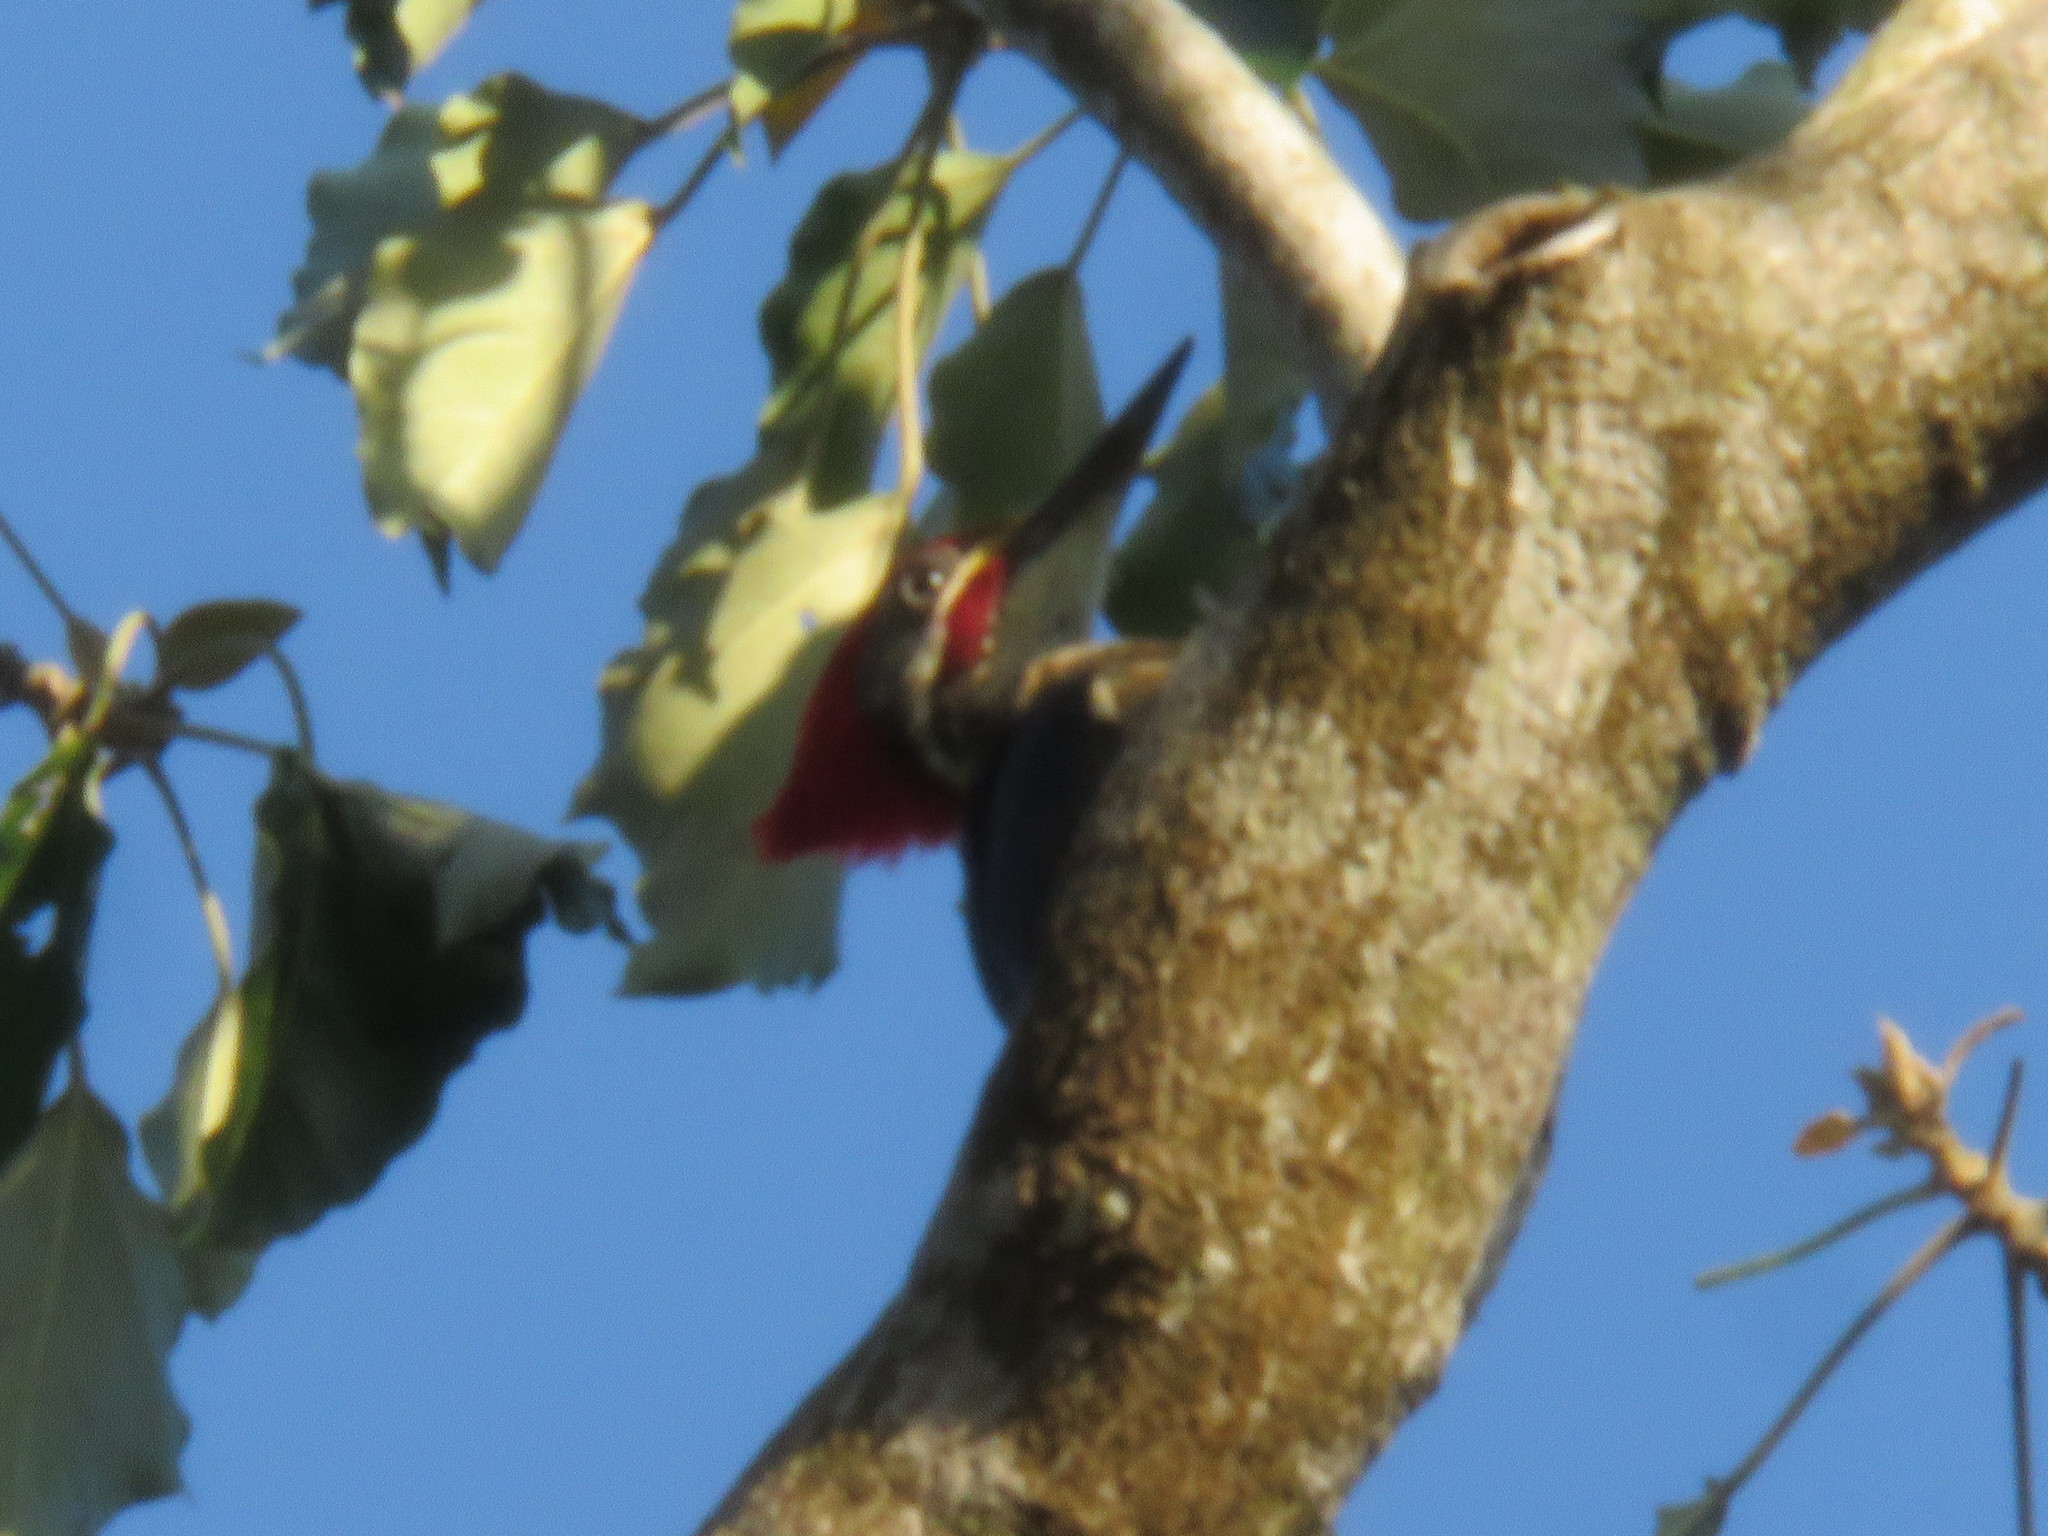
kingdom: Animalia
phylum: Chordata
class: Aves
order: Piciformes
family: Picidae
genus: Dryocopus
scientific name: Dryocopus lineatus
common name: Lineated woodpecker
